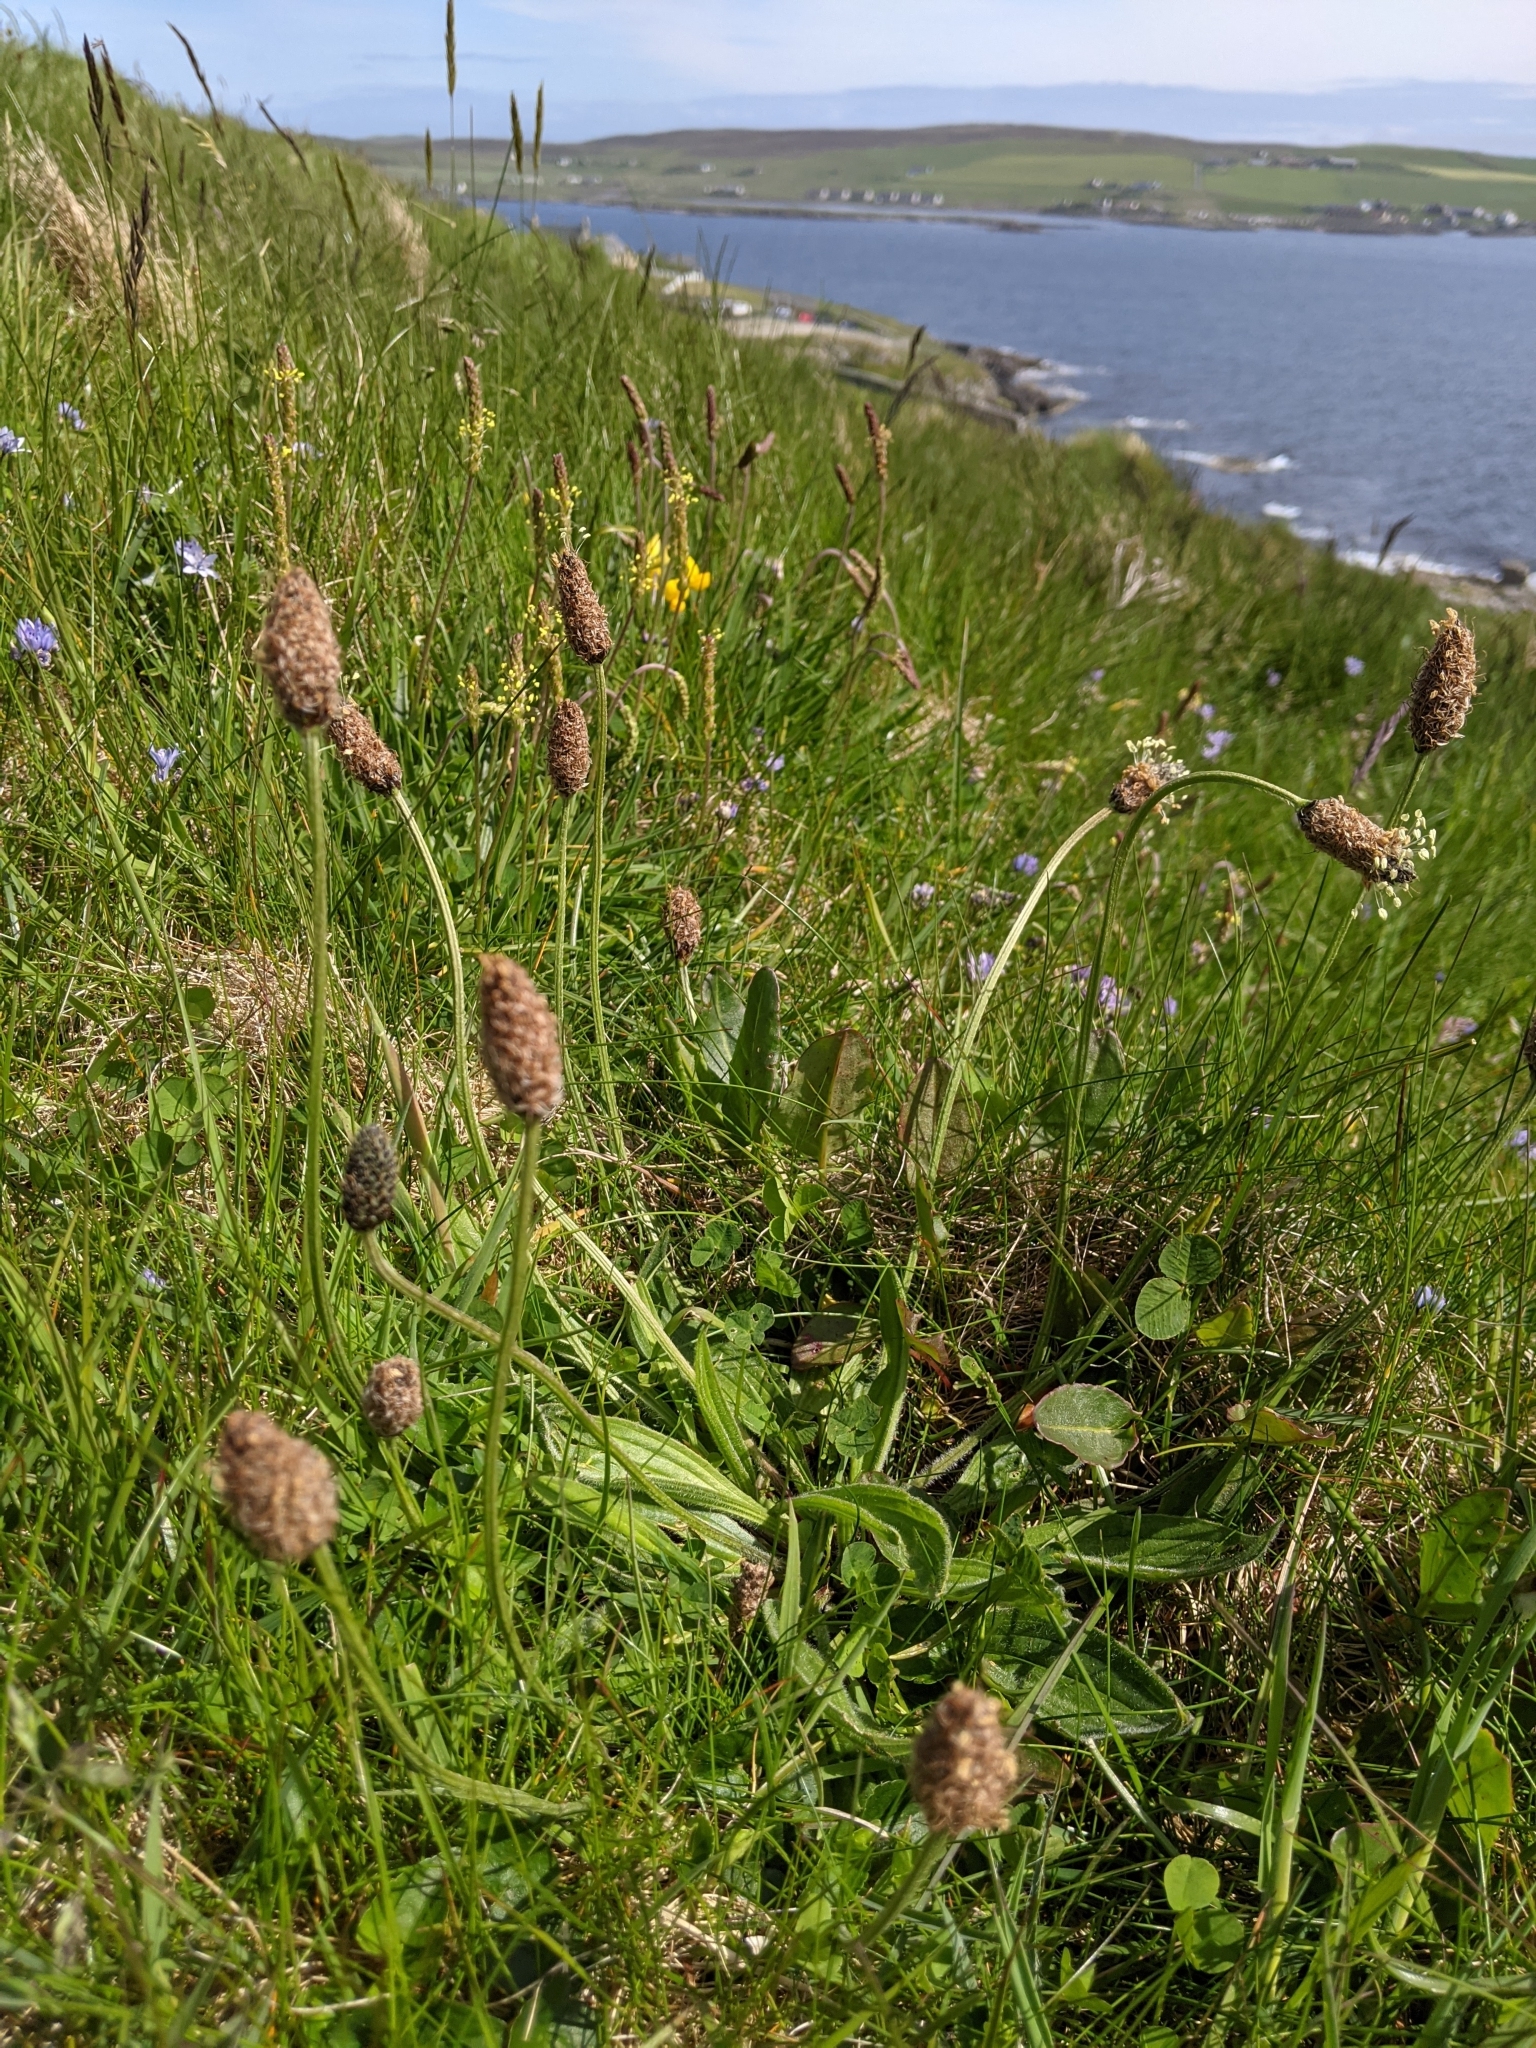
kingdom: Plantae
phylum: Tracheophyta
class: Magnoliopsida
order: Lamiales
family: Plantaginaceae
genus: Plantago
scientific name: Plantago lanceolata
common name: Ribwort plantain
